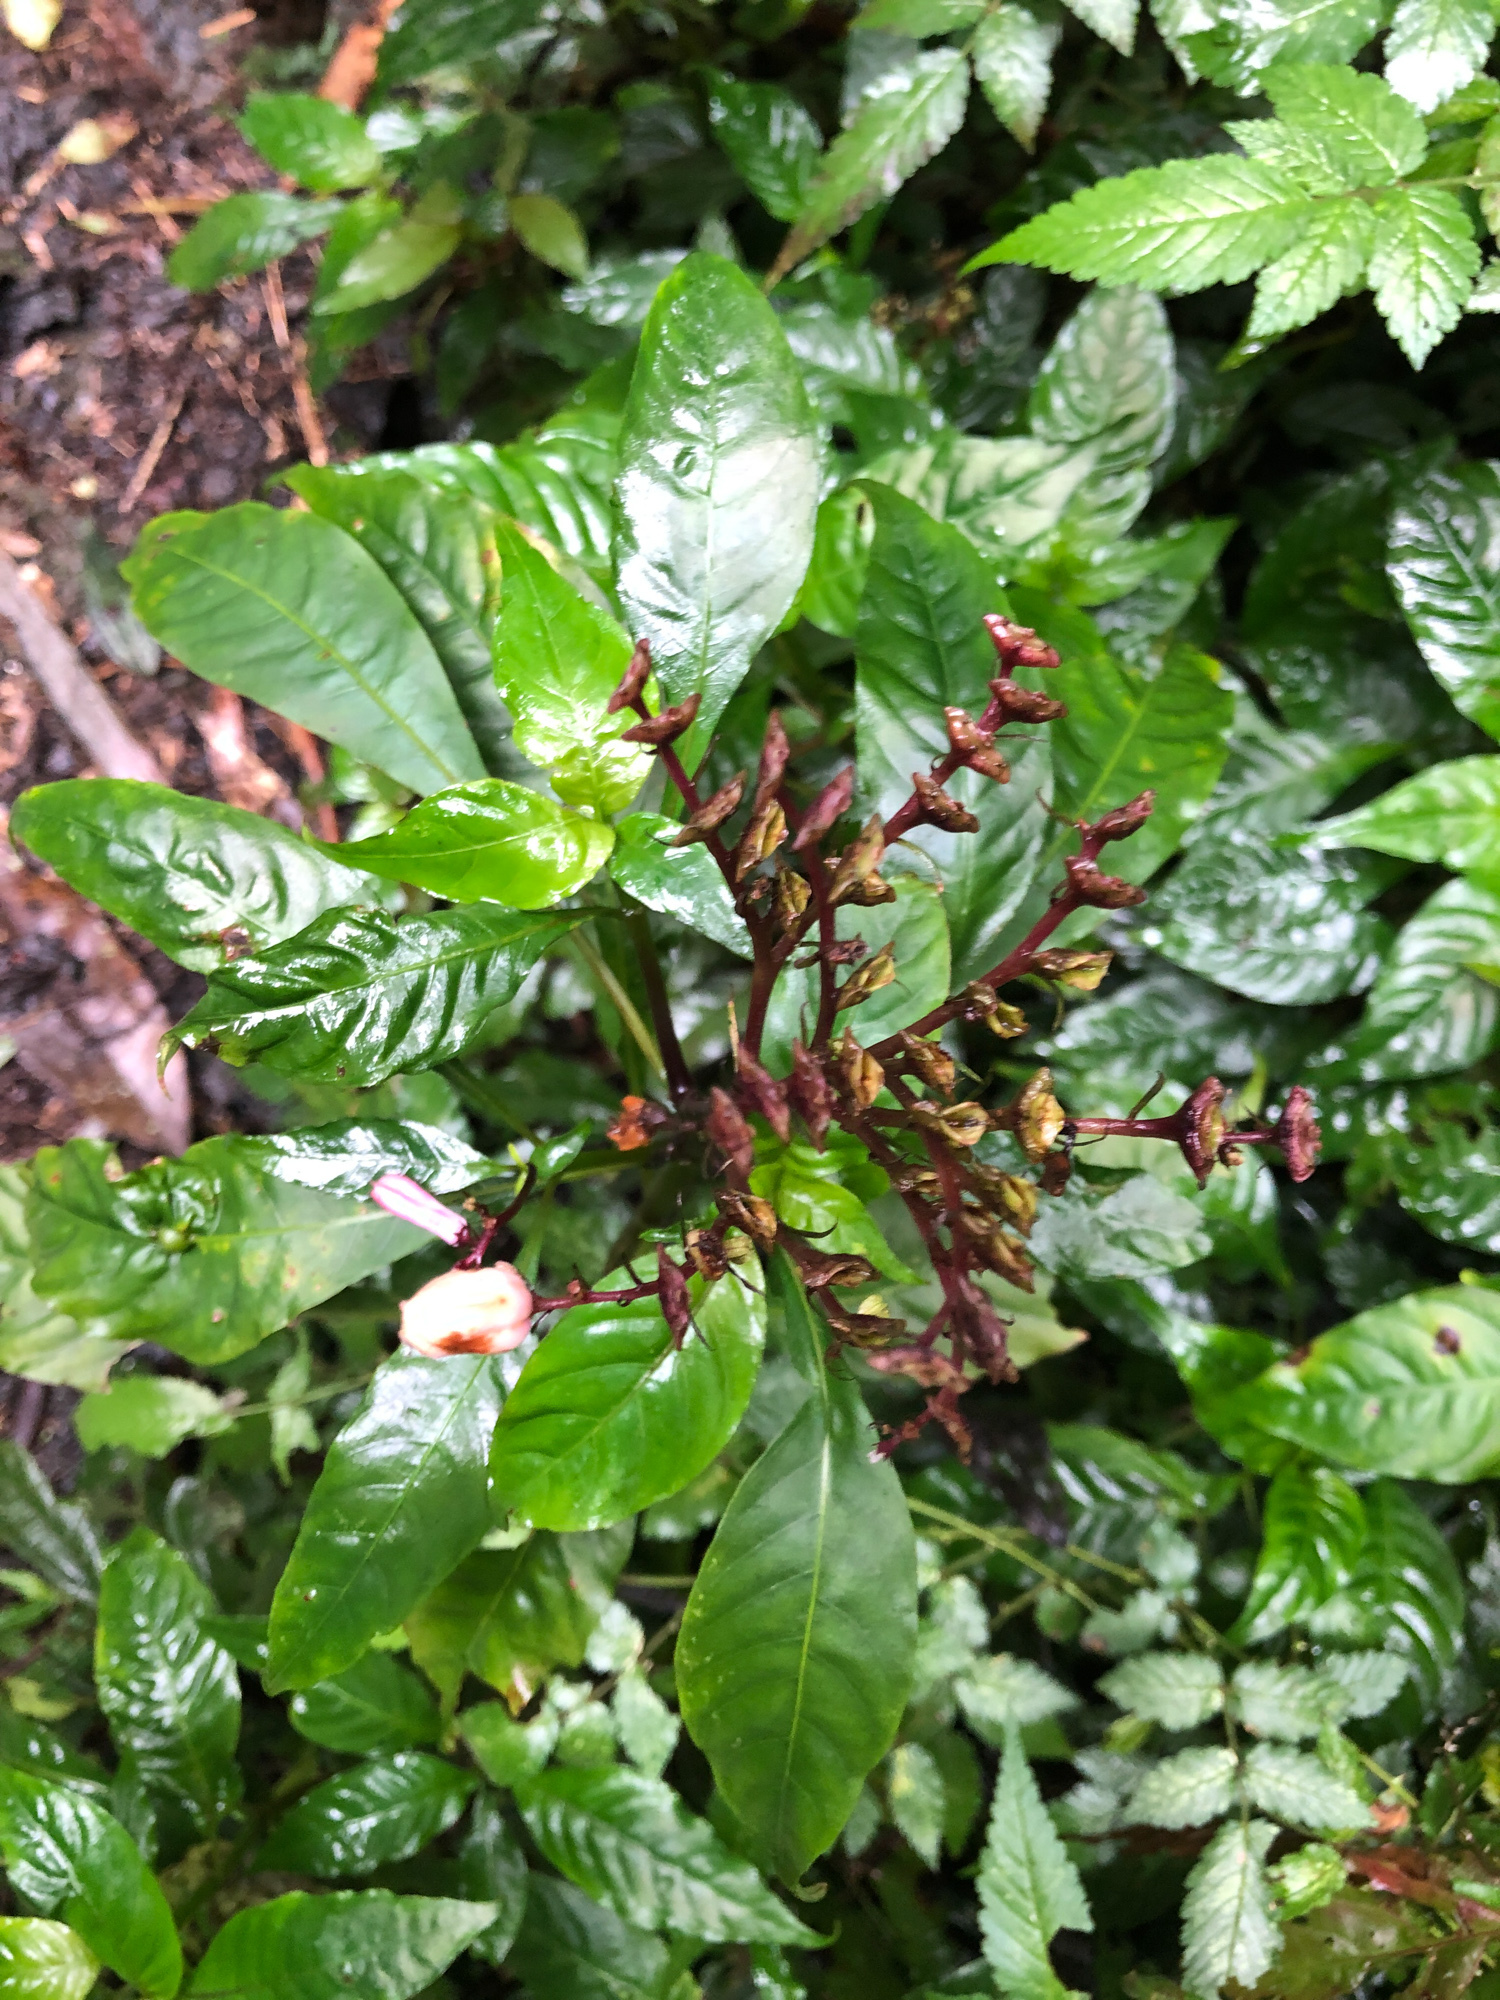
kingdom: Plantae
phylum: Tracheophyta
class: Magnoliopsida
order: Gentianales
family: Rubiaceae
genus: Ophiorrhiza
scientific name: Ophiorrhiza japonica
